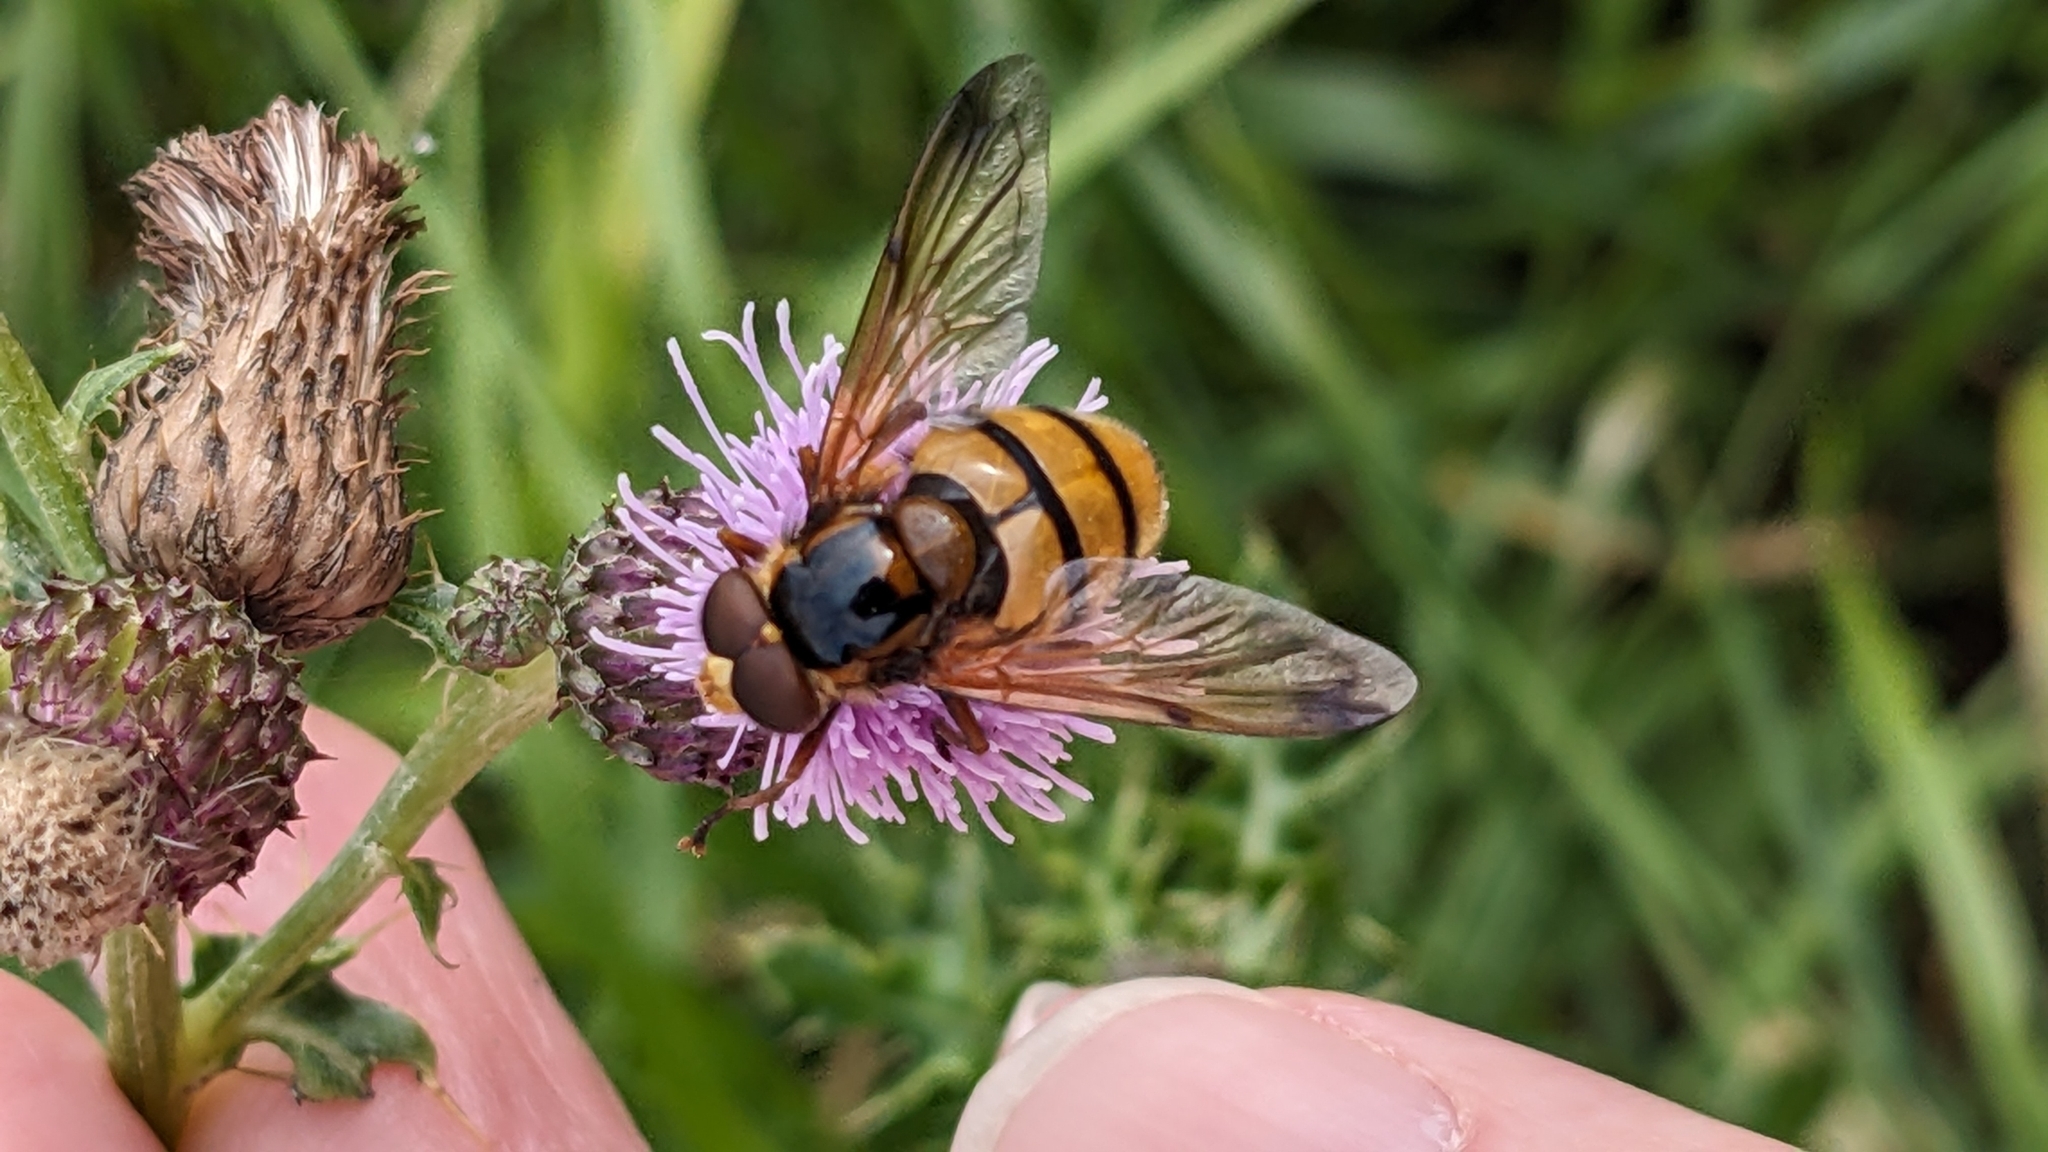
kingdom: Animalia
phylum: Arthropoda
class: Insecta
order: Diptera
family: Syrphidae
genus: Volucella
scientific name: Volucella inanis
